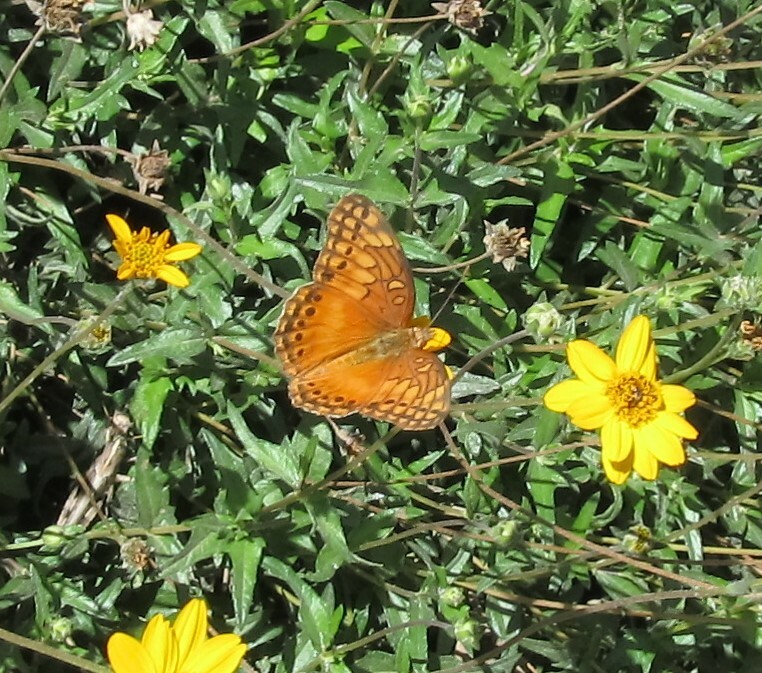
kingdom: Animalia
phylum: Arthropoda
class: Insecta
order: Lepidoptera
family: Nymphalidae
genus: Euptoieta
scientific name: Euptoieta hegesia
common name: Mexican fritillary
